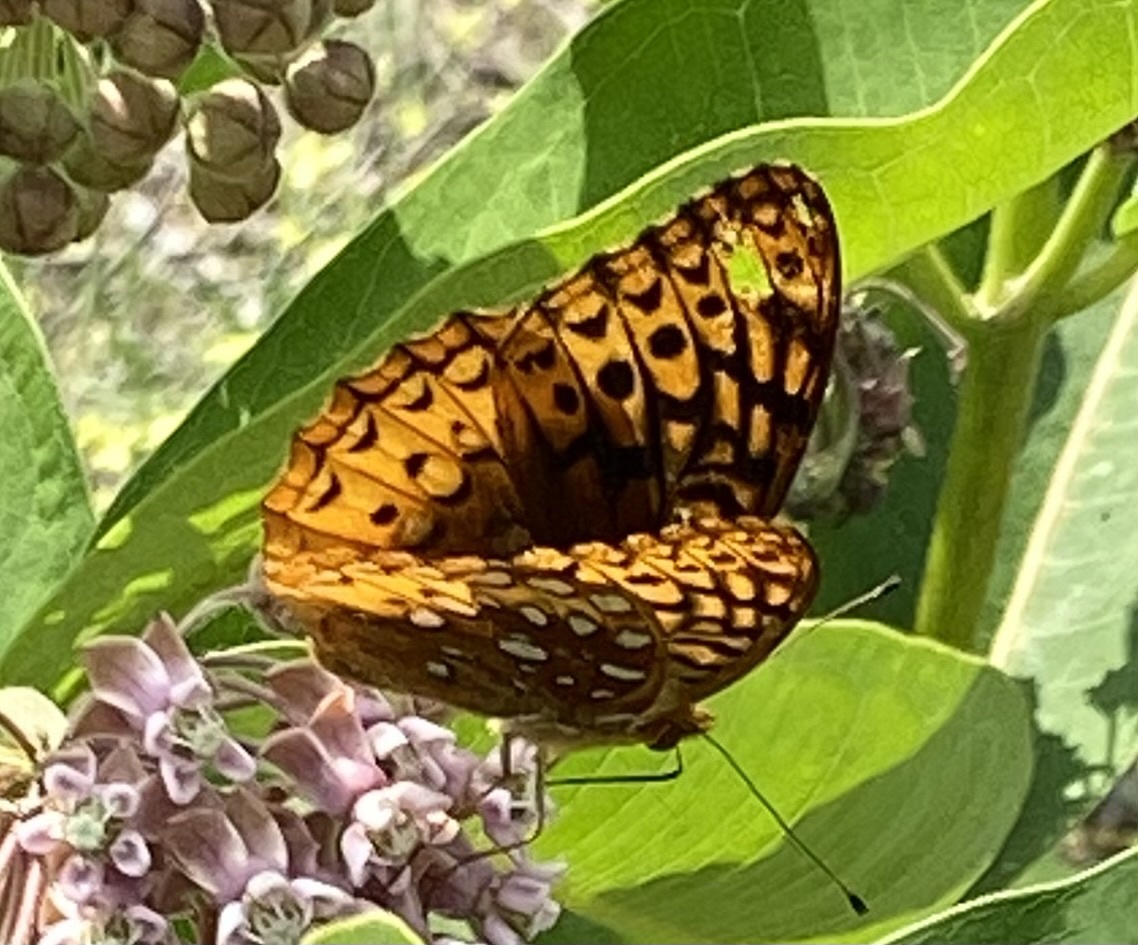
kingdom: Animalia
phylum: Arthropoda
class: Insecta
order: Lepidoptera
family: Nymphalidae
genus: Speyeria
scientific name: Speyeria cybele
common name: Great spangled fritillary
